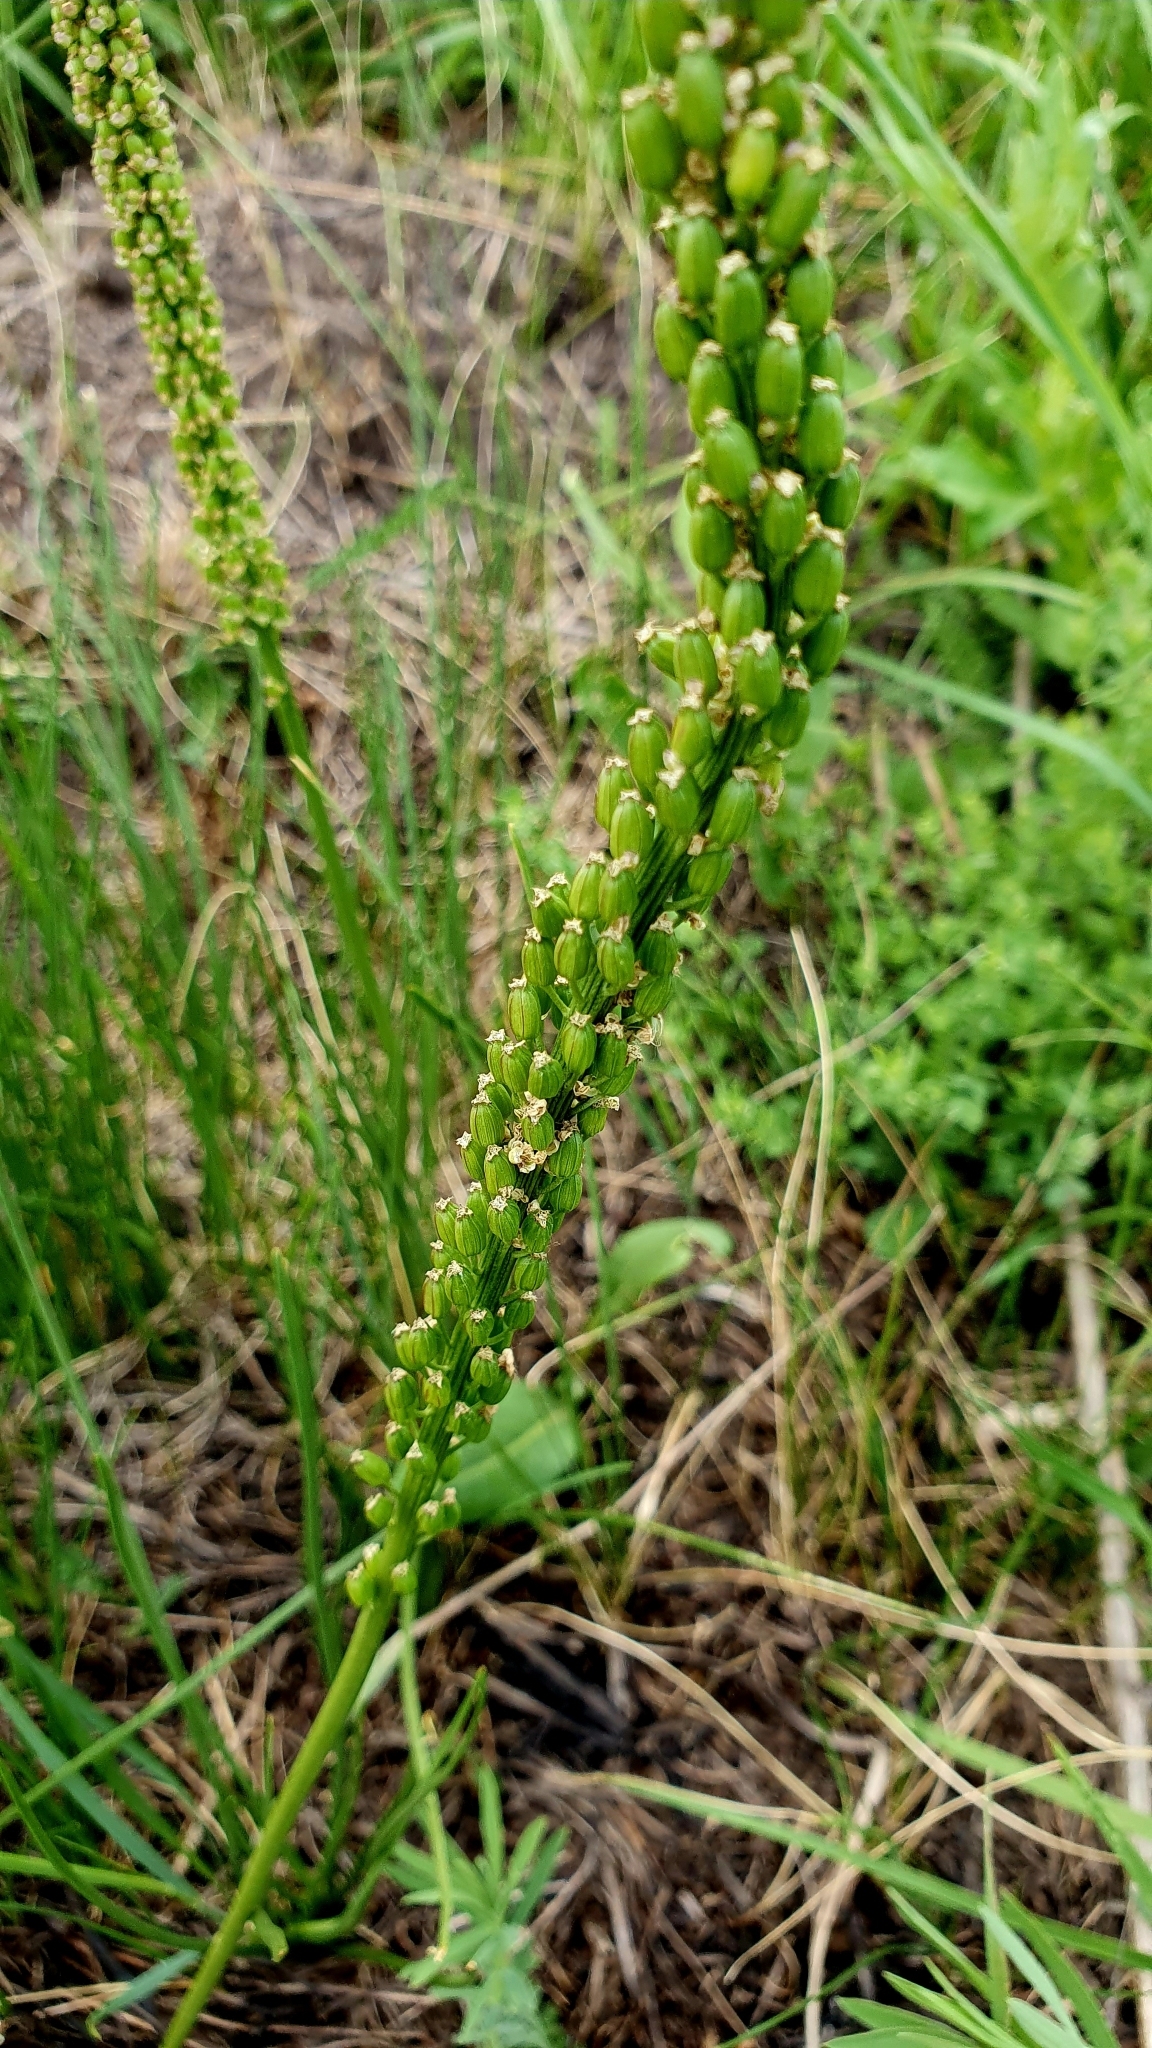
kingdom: Plantae
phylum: Tracheophyta
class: Liliopsida
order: Alismatales
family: Juncaginaceae
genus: Triglochin
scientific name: Triglochin maritima
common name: Sea arrowgrass
